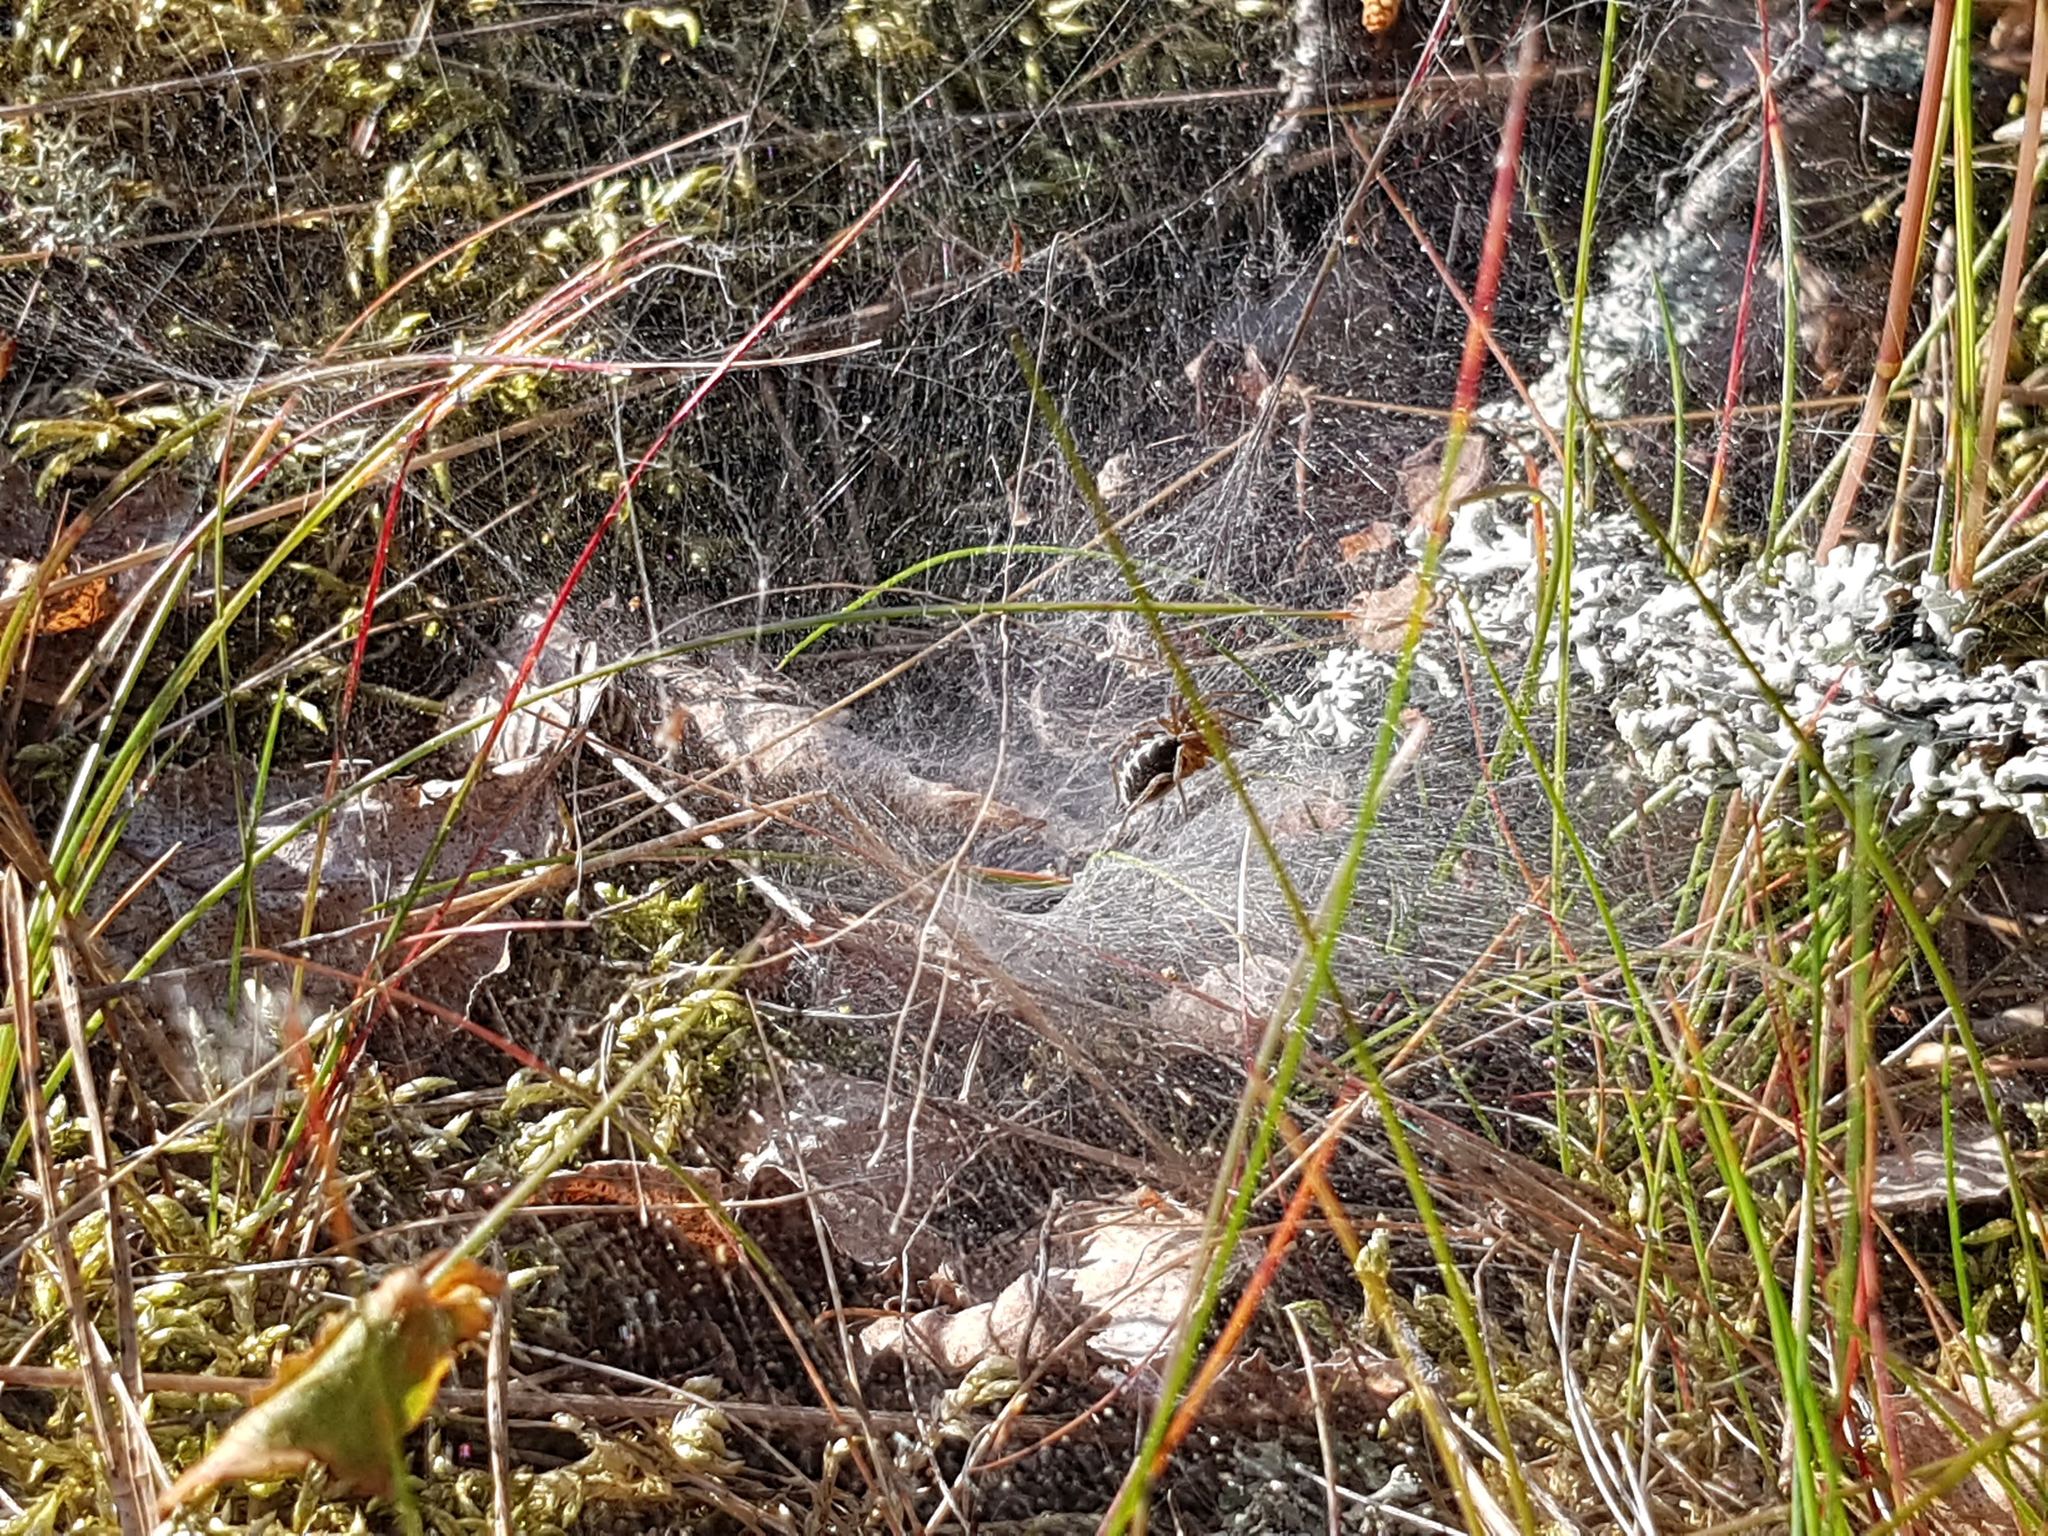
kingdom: Animalia
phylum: Arthropoda
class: Arachnida
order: Araneae
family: Agelenidae
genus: Agelena
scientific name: Agelena labyrinthica
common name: Labyrinth spider
